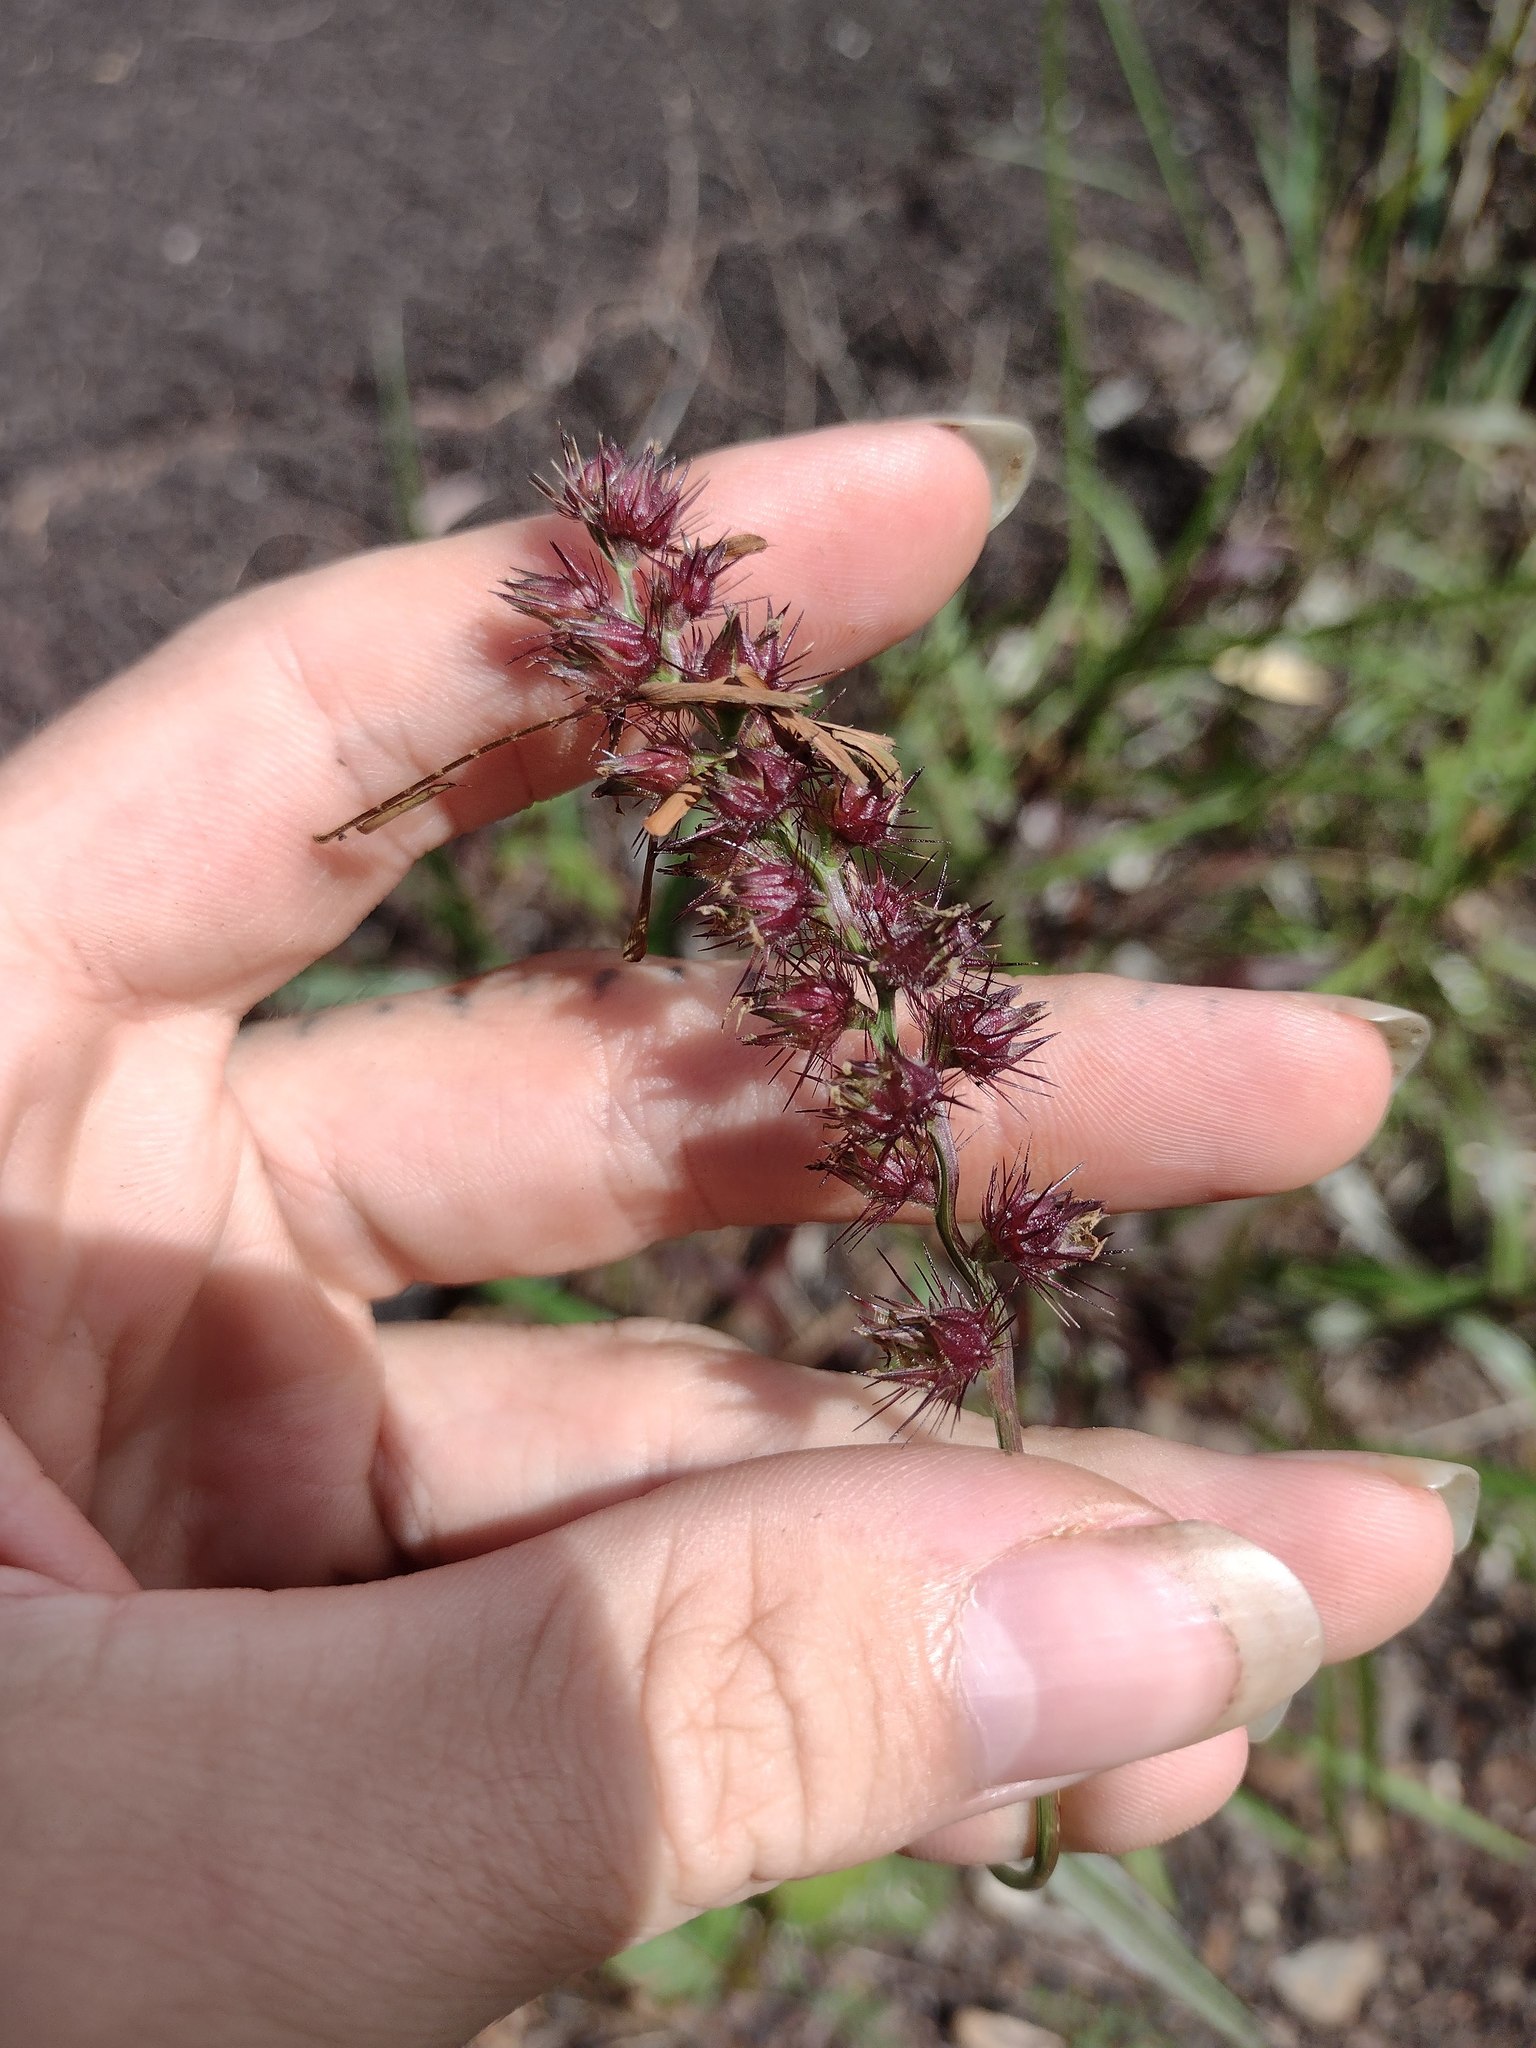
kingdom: Plantae
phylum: Tracheophyta
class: Liliopsida
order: Poales
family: Poaceae
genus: Cenchrus
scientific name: Cenchrus echinatus
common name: Southern sandbur
